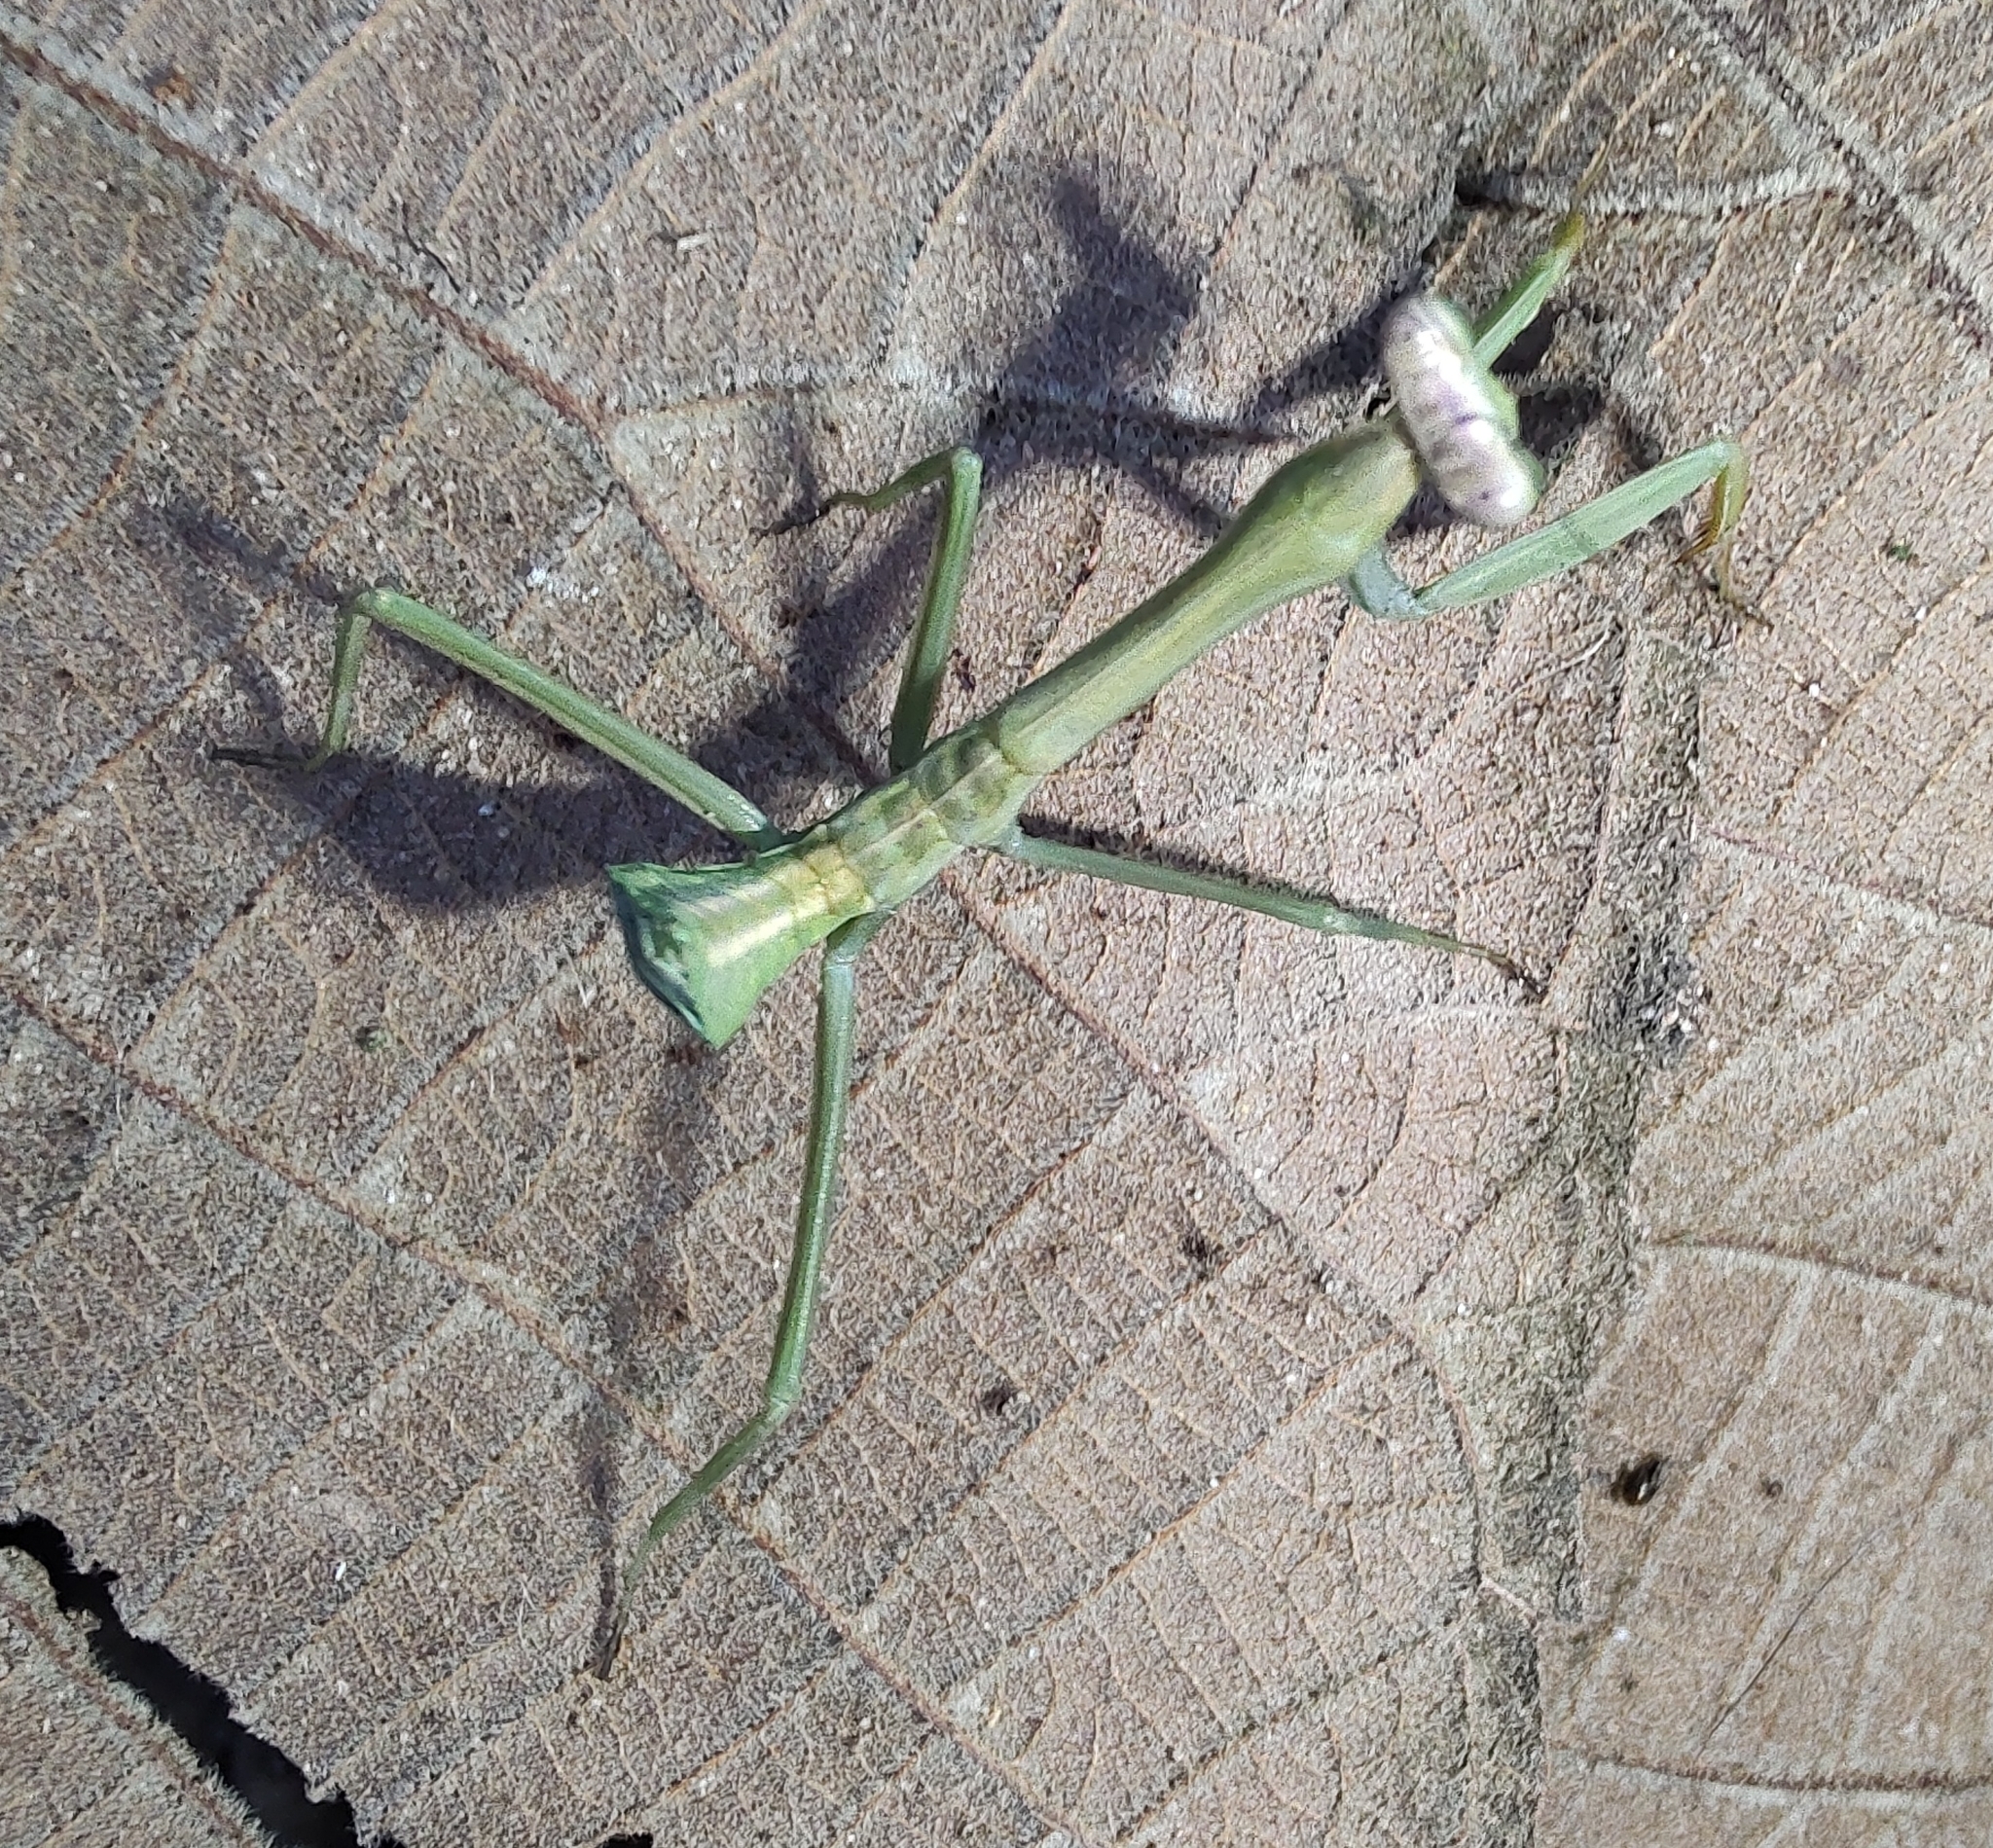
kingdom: Animalia
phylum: Arthropoda
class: Insecta
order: Mantodea
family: Mantidae
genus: Stagmatoptera
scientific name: Stagmatoptera praecaria
